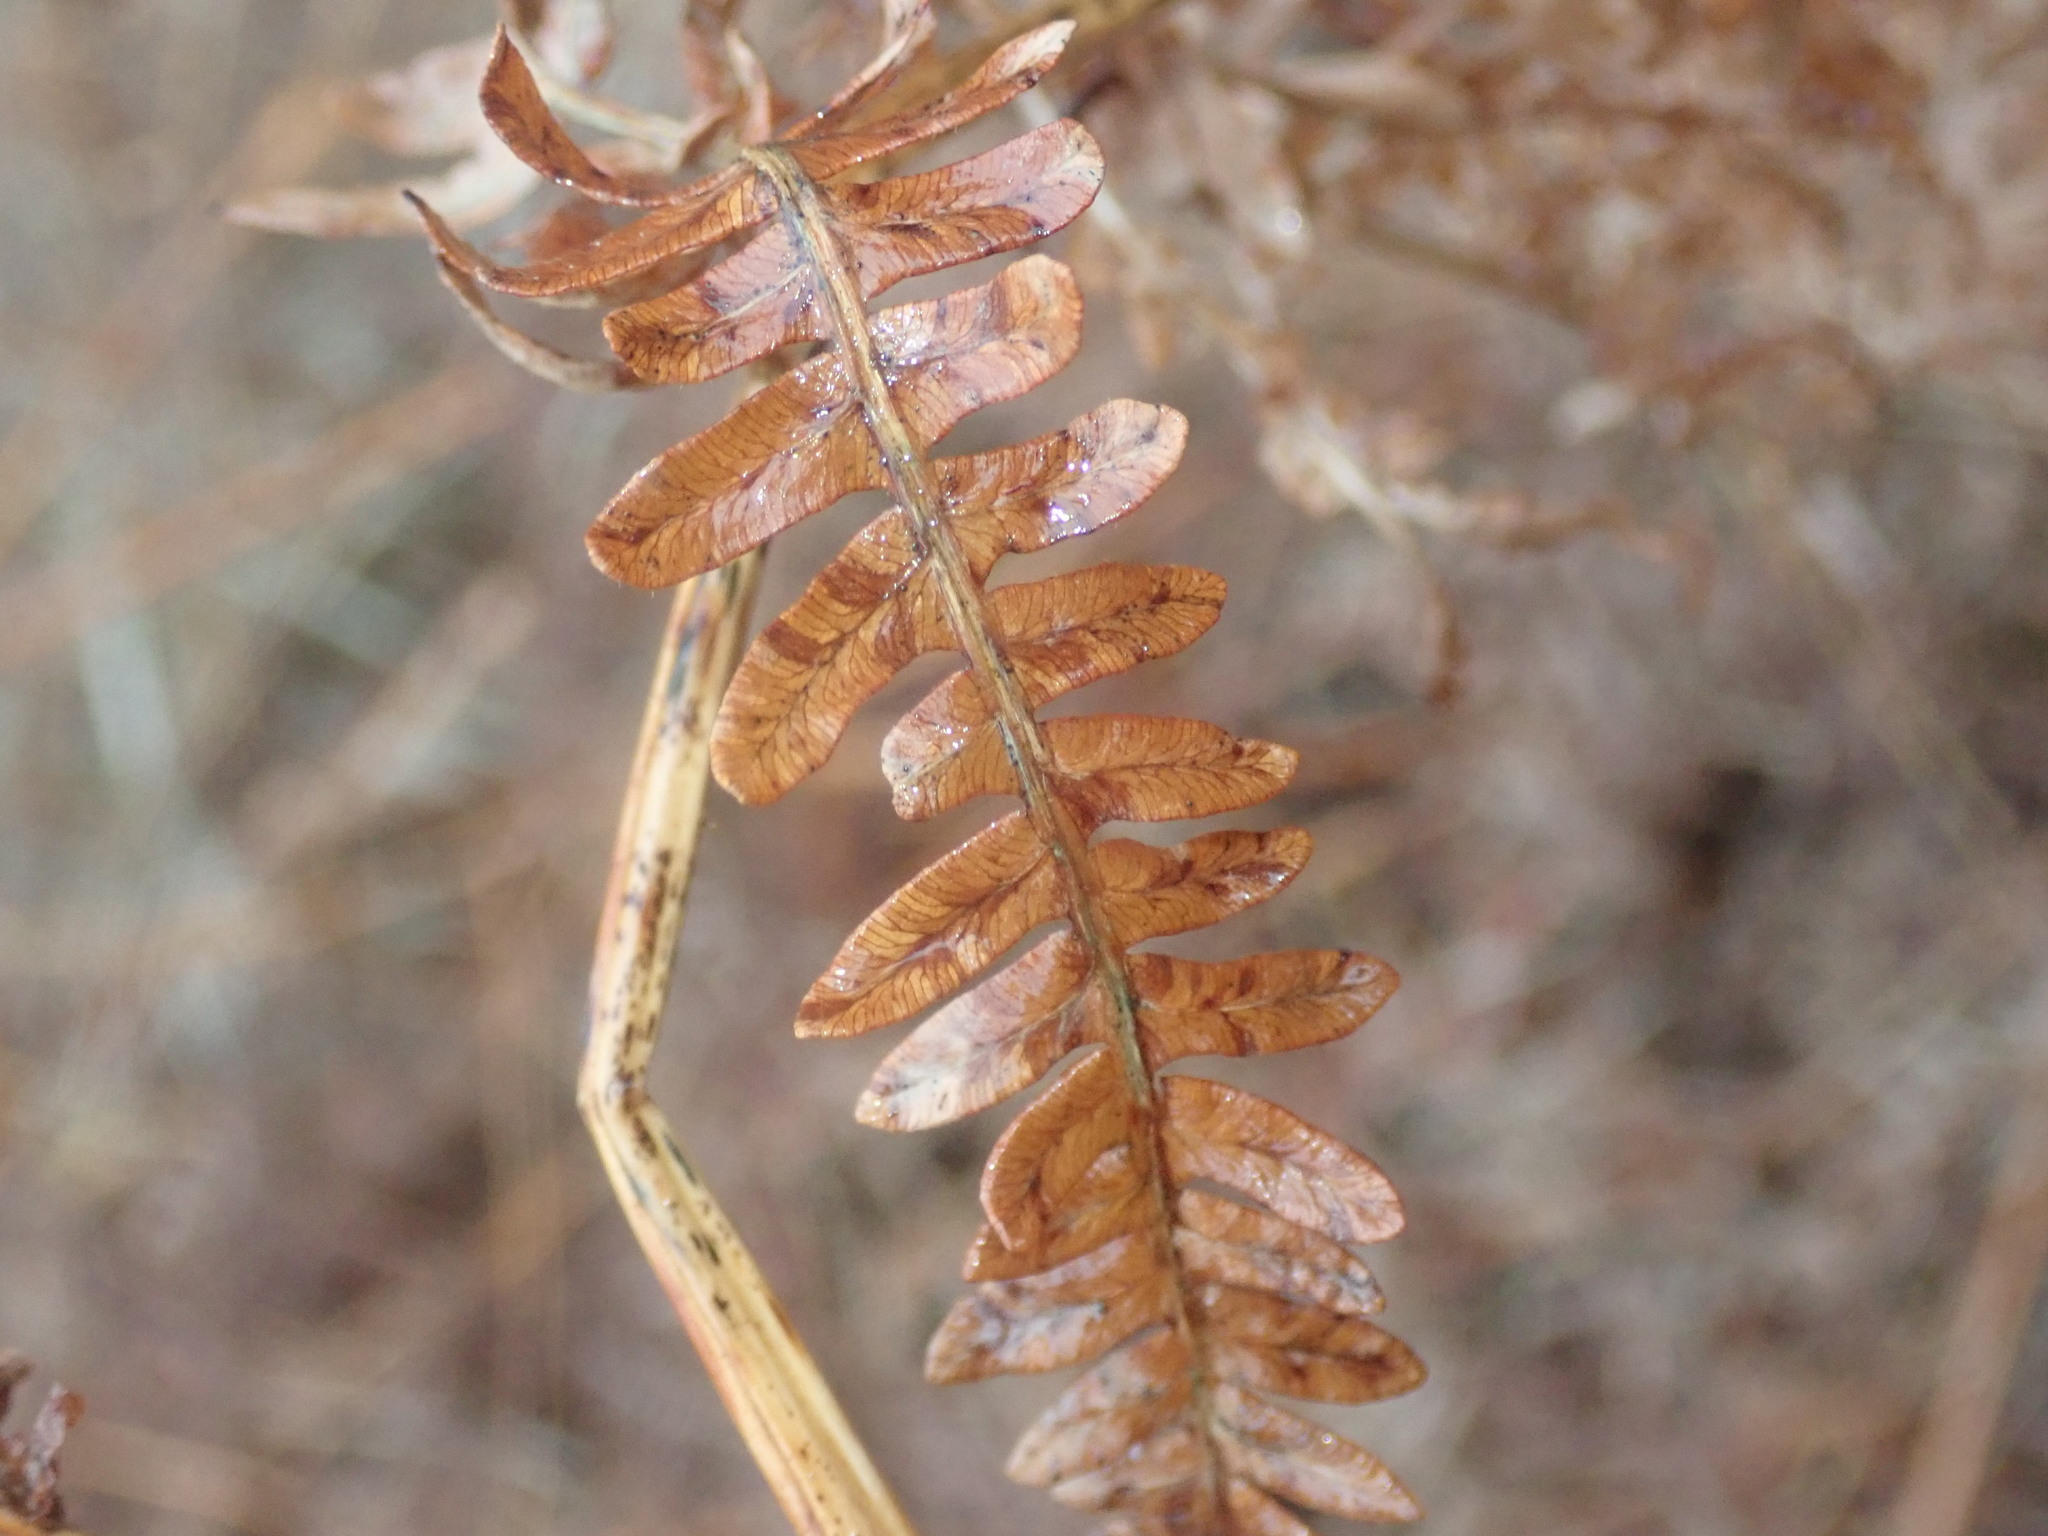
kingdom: Fungi
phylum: Ascomycota
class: Dothideomycetes
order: Pleosporales
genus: Rhopographus
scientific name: Rhopographus filicinus
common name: Bracken map
